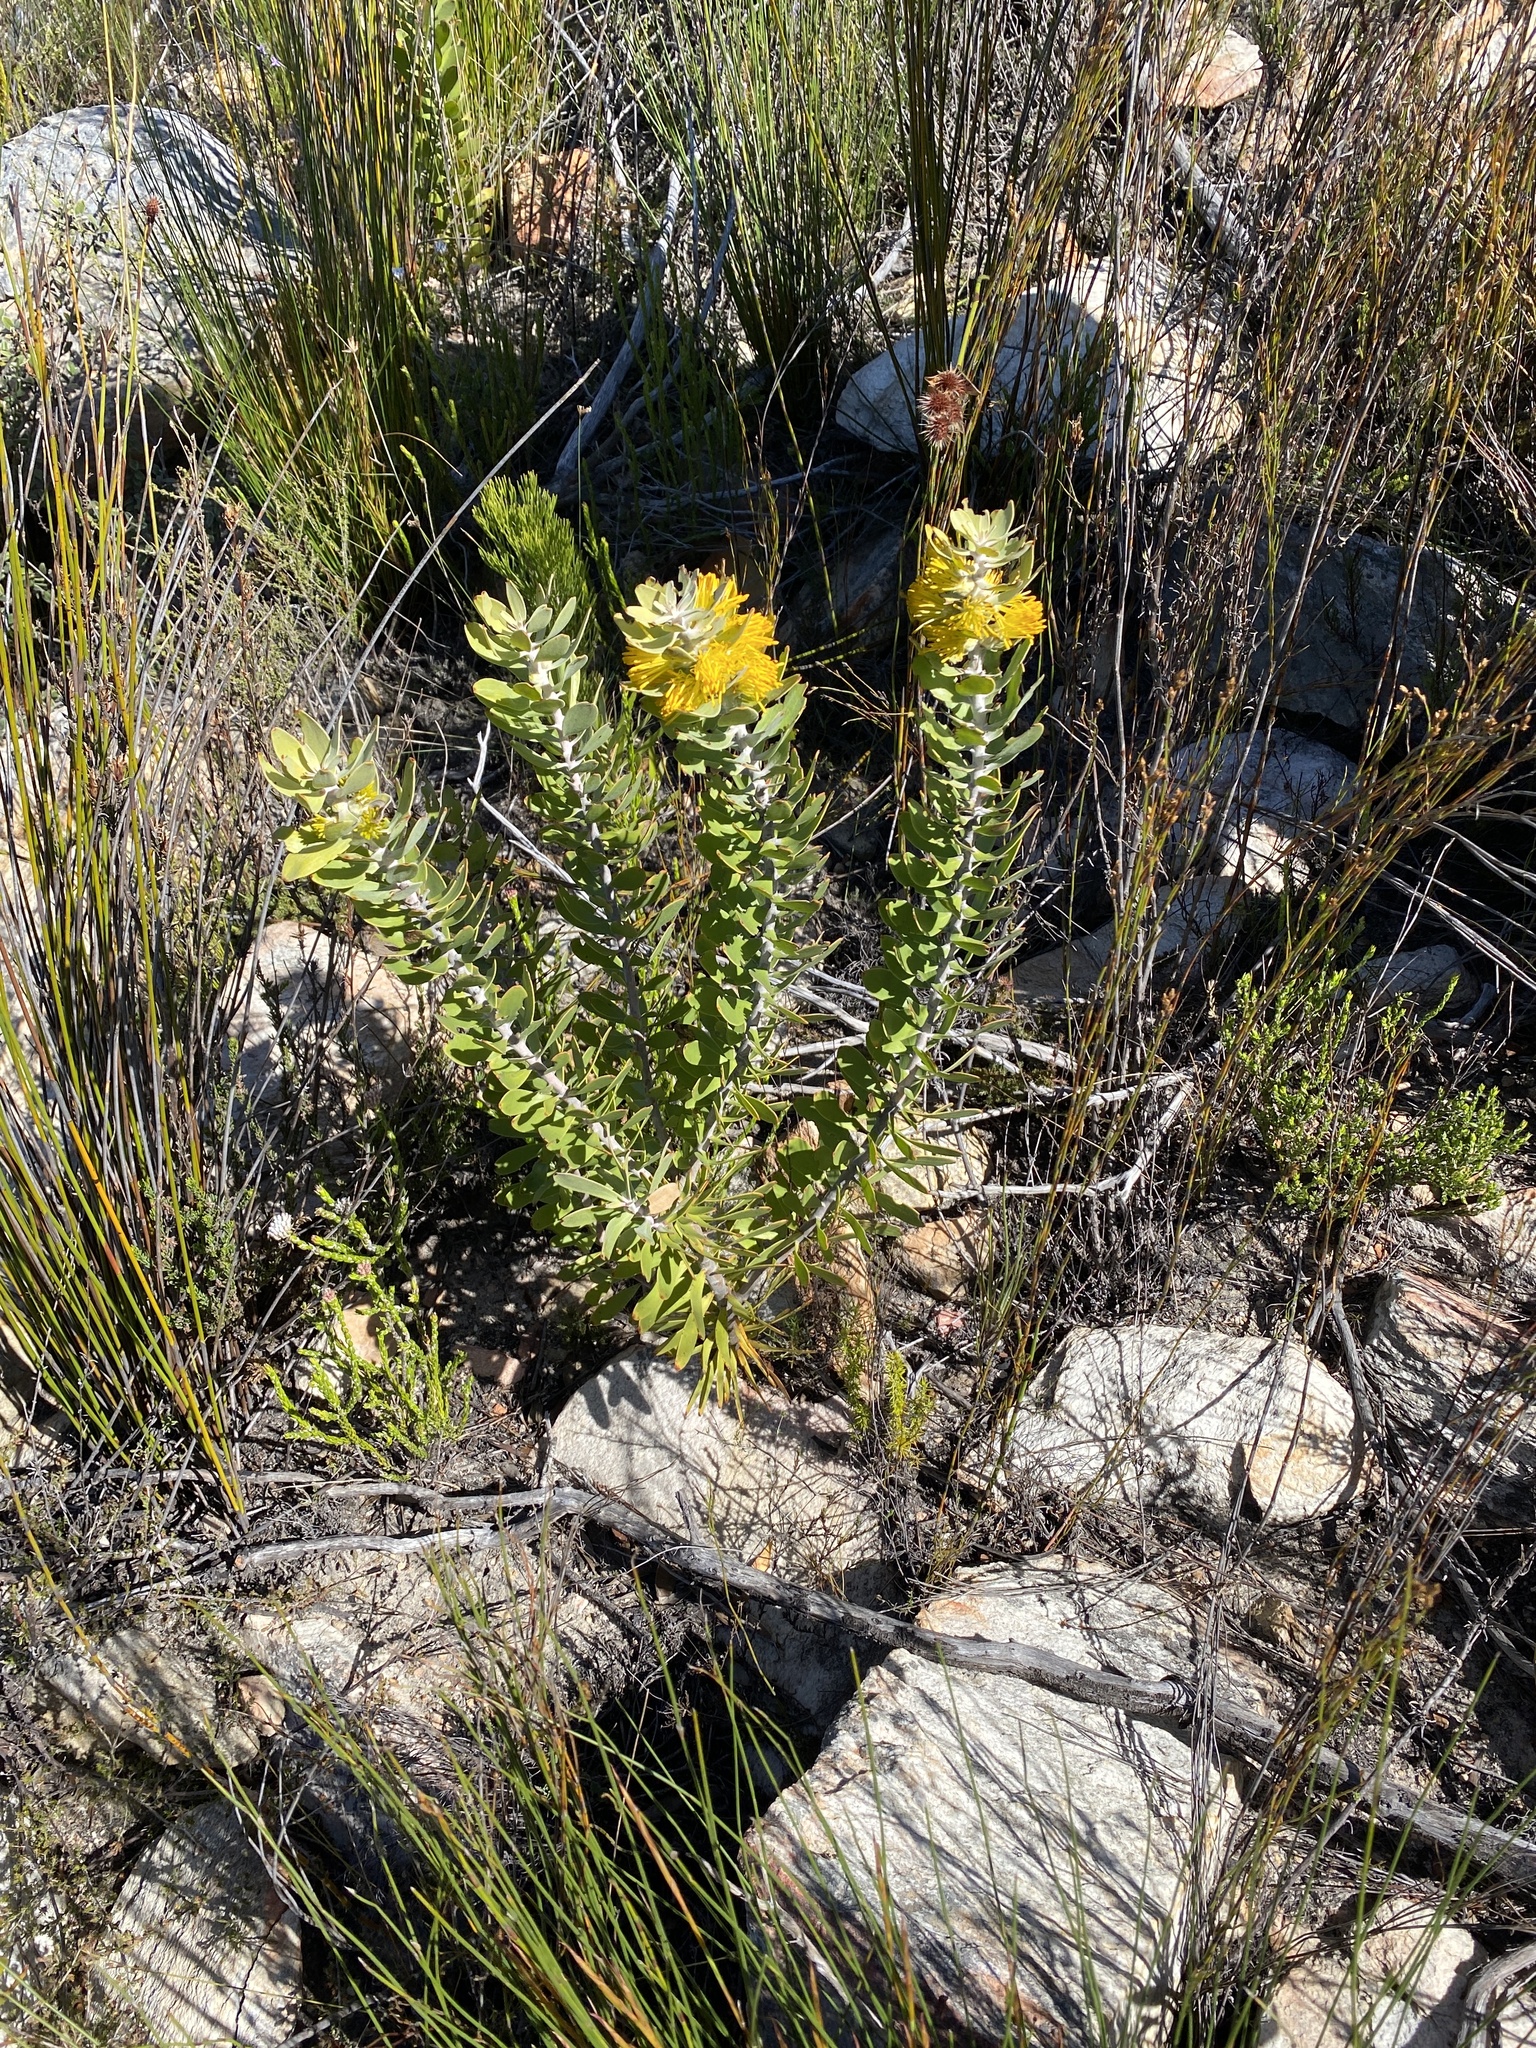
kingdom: Plantae
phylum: Tracheophyta
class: Magnoliopsida
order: Proteales
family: Proteaceae
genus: Mimetes
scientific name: Mimetes chrysanthus
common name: Golden pagoda
